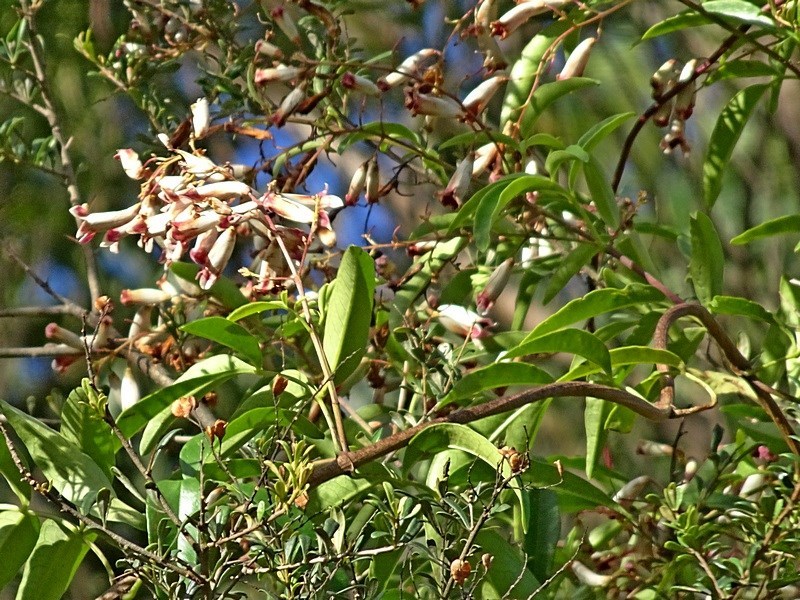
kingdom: Plantae
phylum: Tracheophyta
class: Magnoliopsida
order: Lamiales
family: Bignoniaceae
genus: Pandorea
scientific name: Pandorea pandorana
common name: Wonga-wonga-vine
